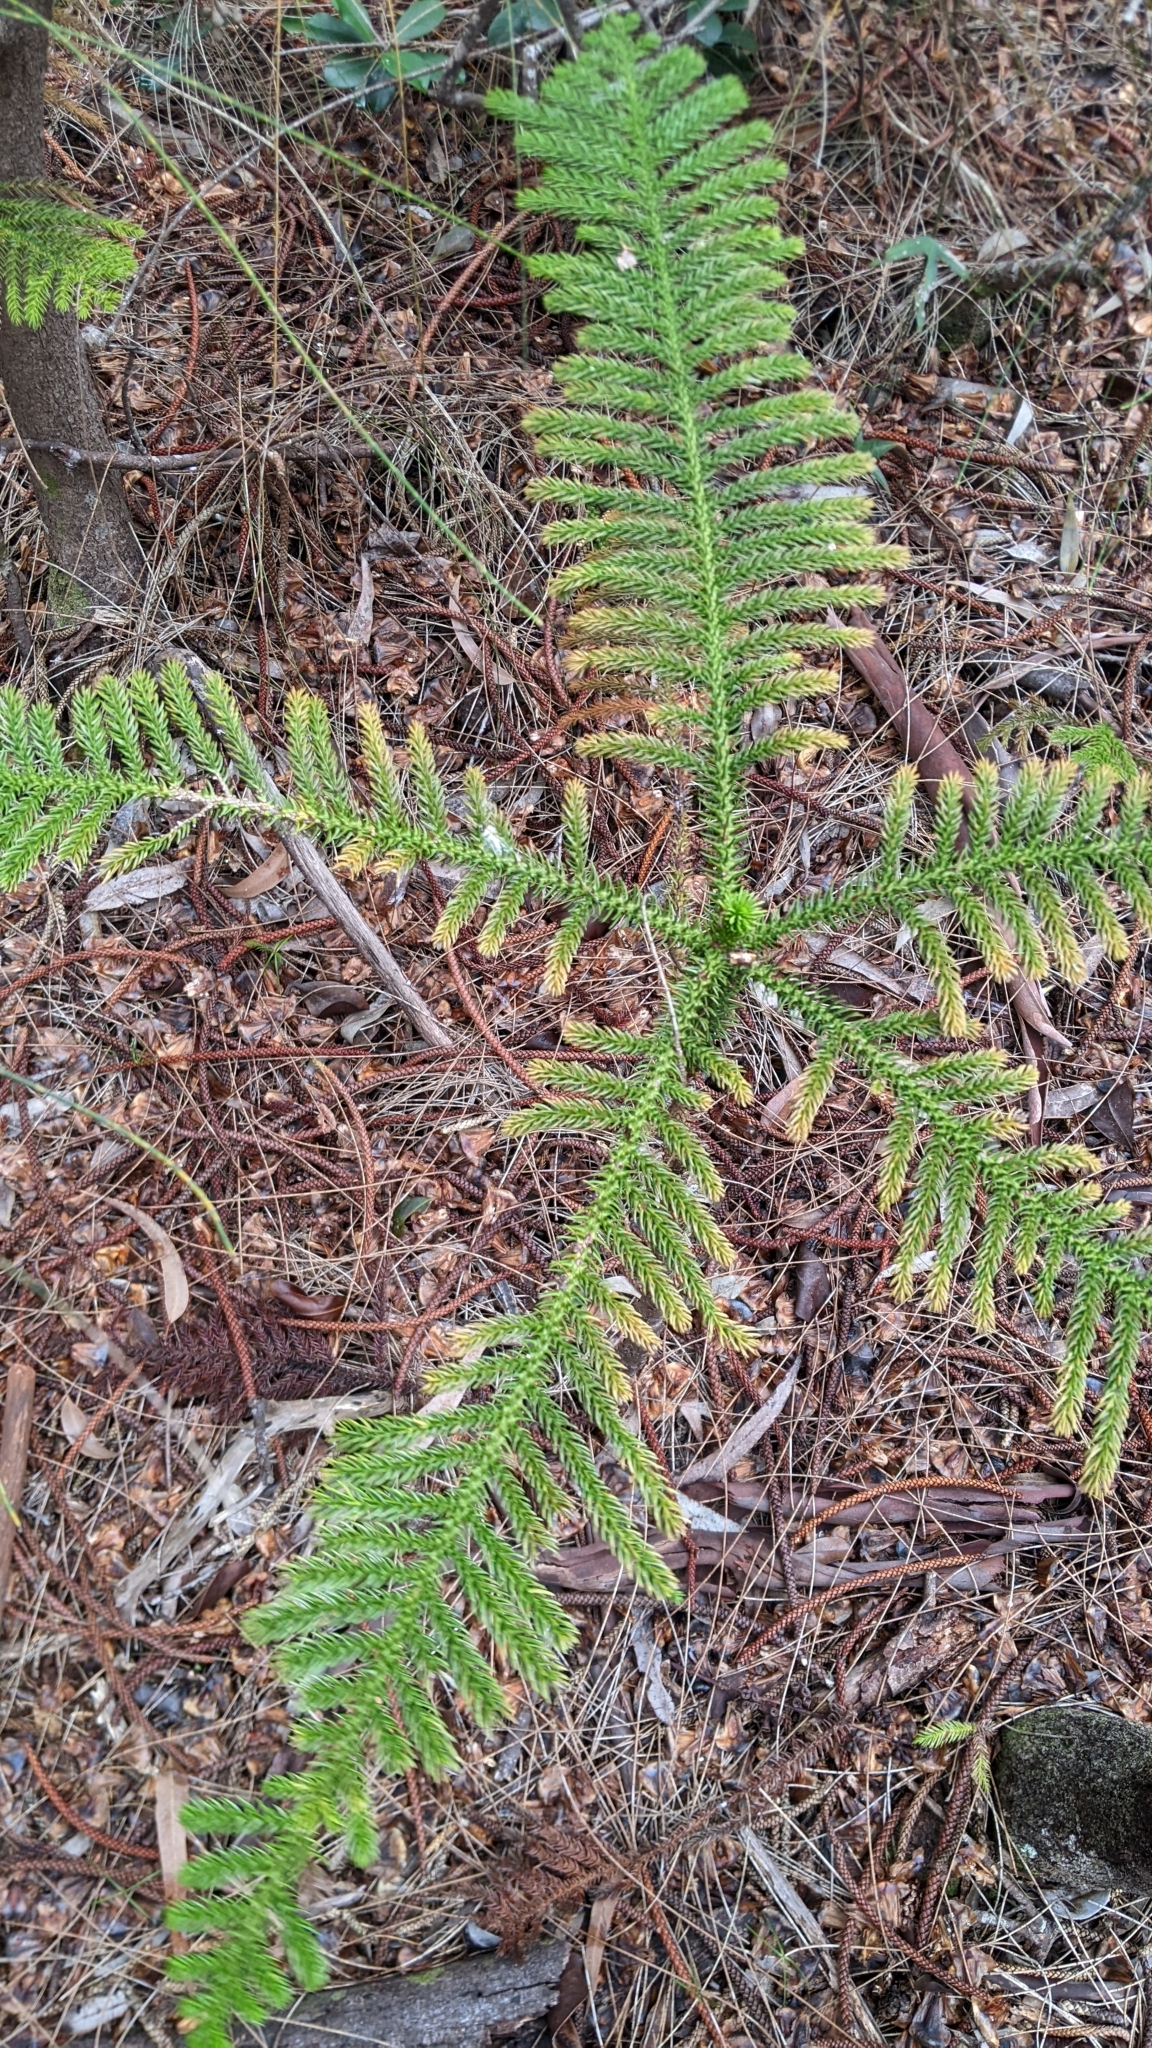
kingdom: Plantae
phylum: Tracheophyta
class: Pinopsida
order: Pinales
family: Araucariaceae
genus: Araucaria
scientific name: Araucaria columnaris
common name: Coral reef araucaria
